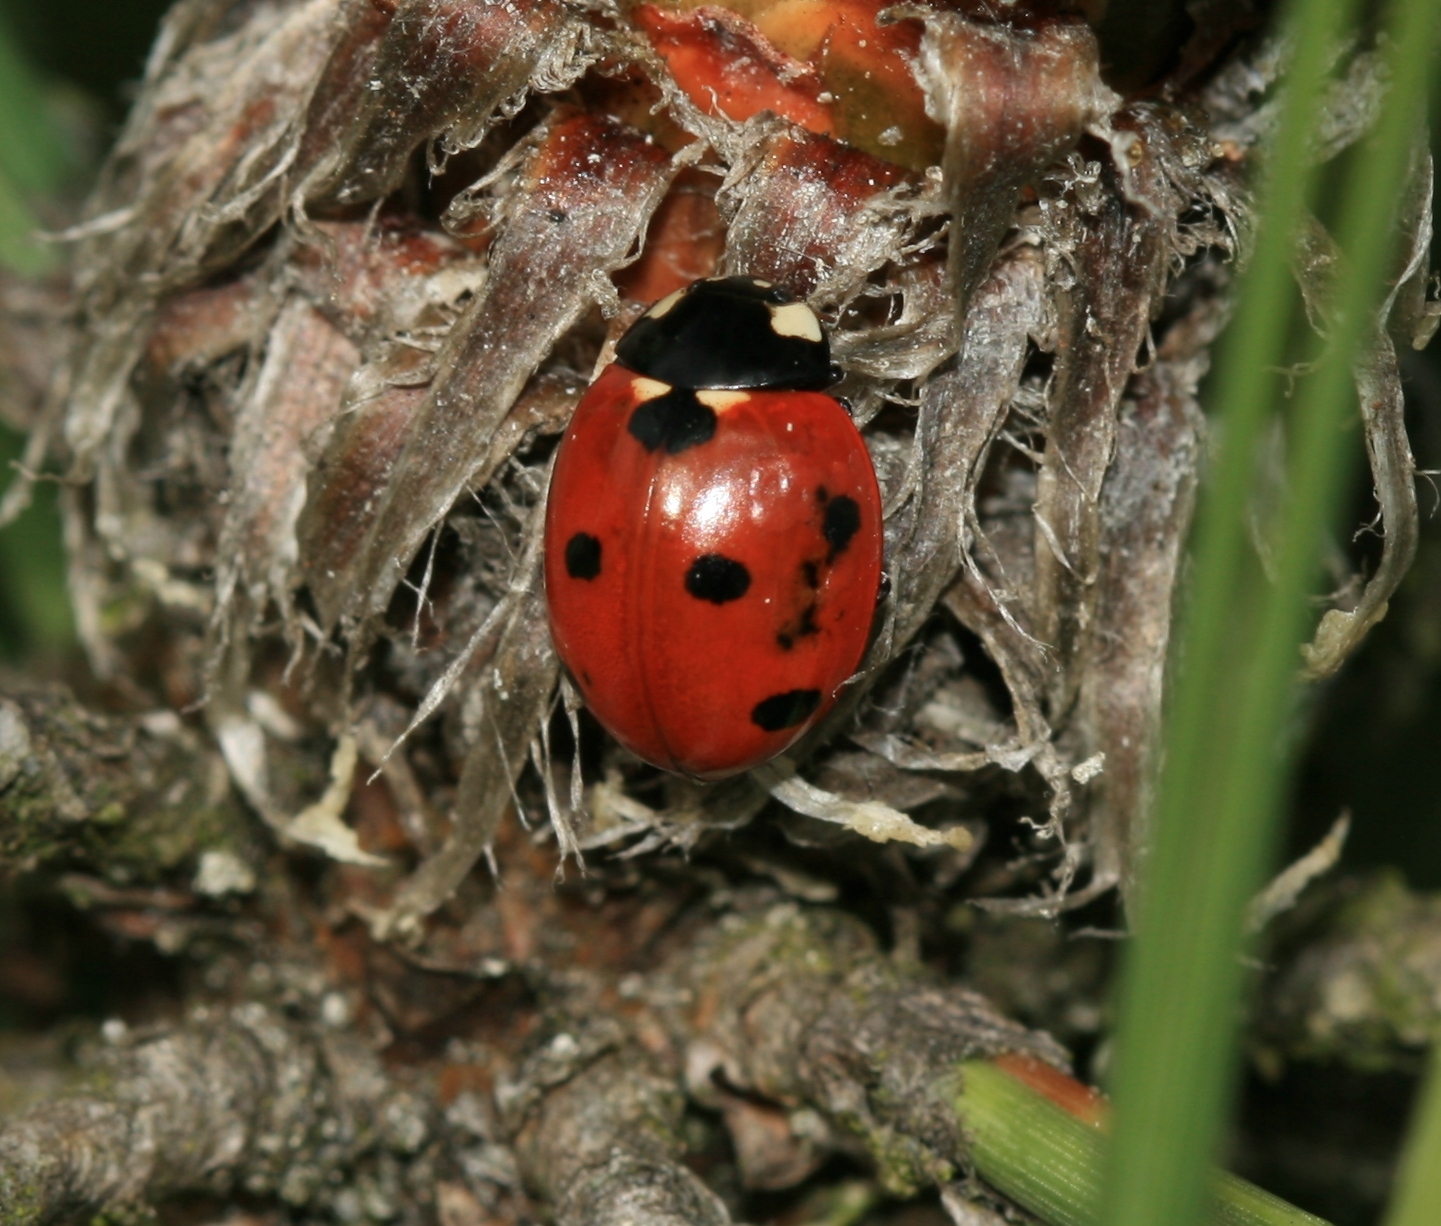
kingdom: Animalia
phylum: Arthropoda
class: Insecta
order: Coleoptera
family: Coccinellidae
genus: Coccinella
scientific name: Coccinella septempunctata
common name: Sevenspotted lady beetle
